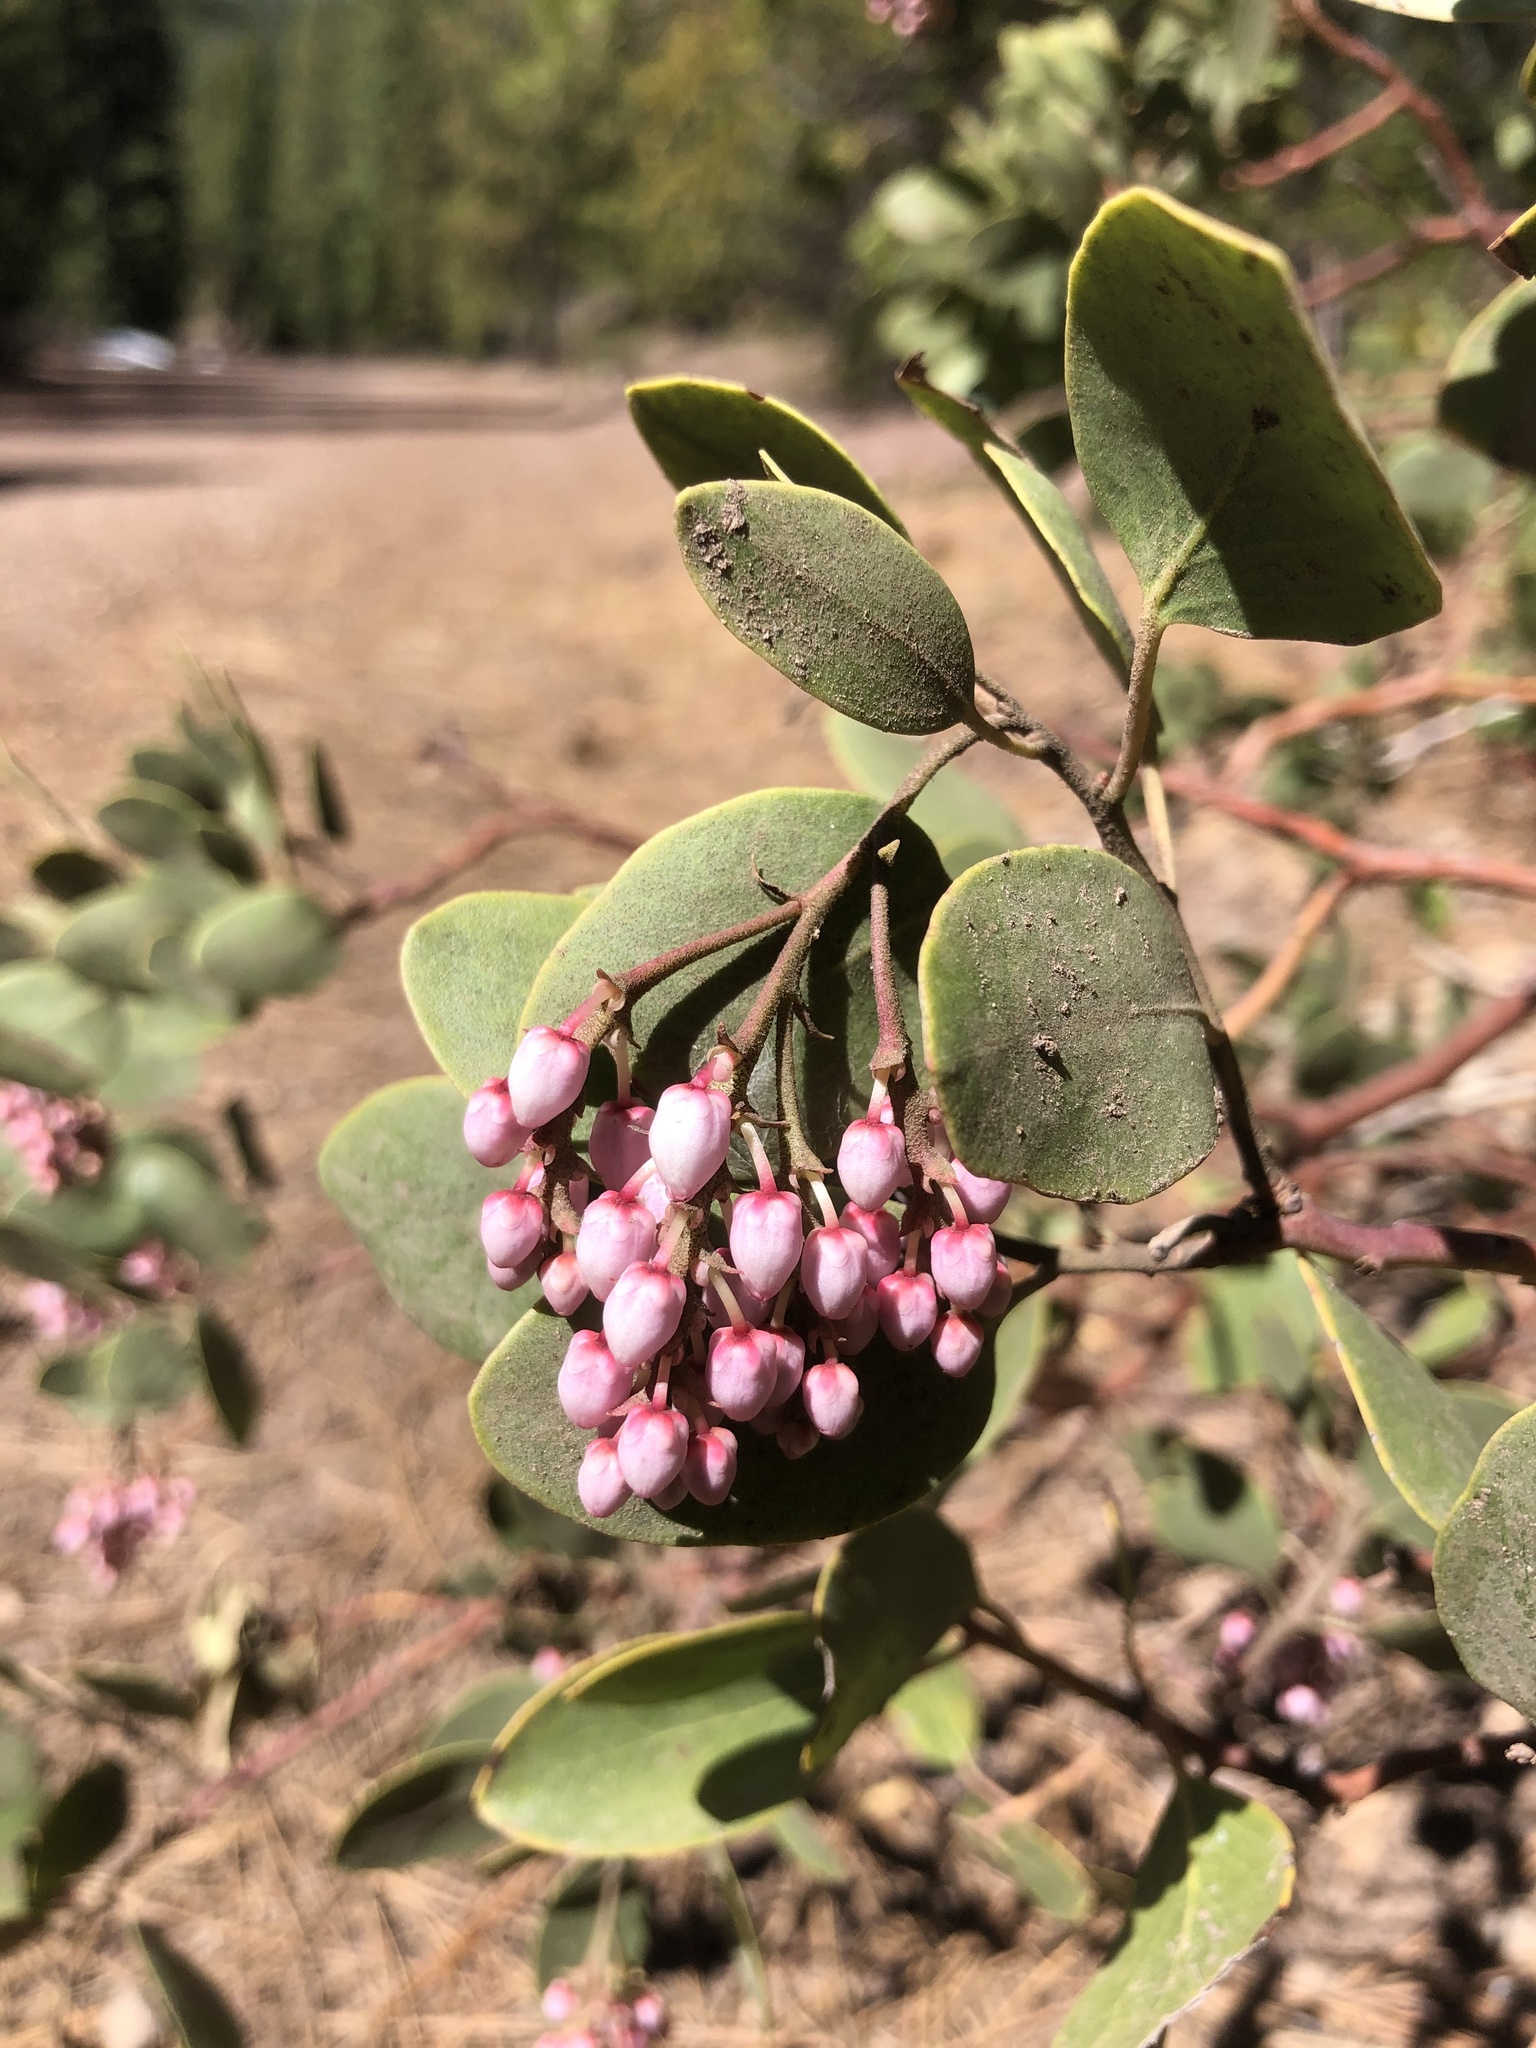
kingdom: Plantae
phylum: Tracheophyta
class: Magnoliopsida
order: Ericales
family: Ericaceae
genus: Arctostaphylos
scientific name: Arctostaphylos patula
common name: Green-leaf manzanita
